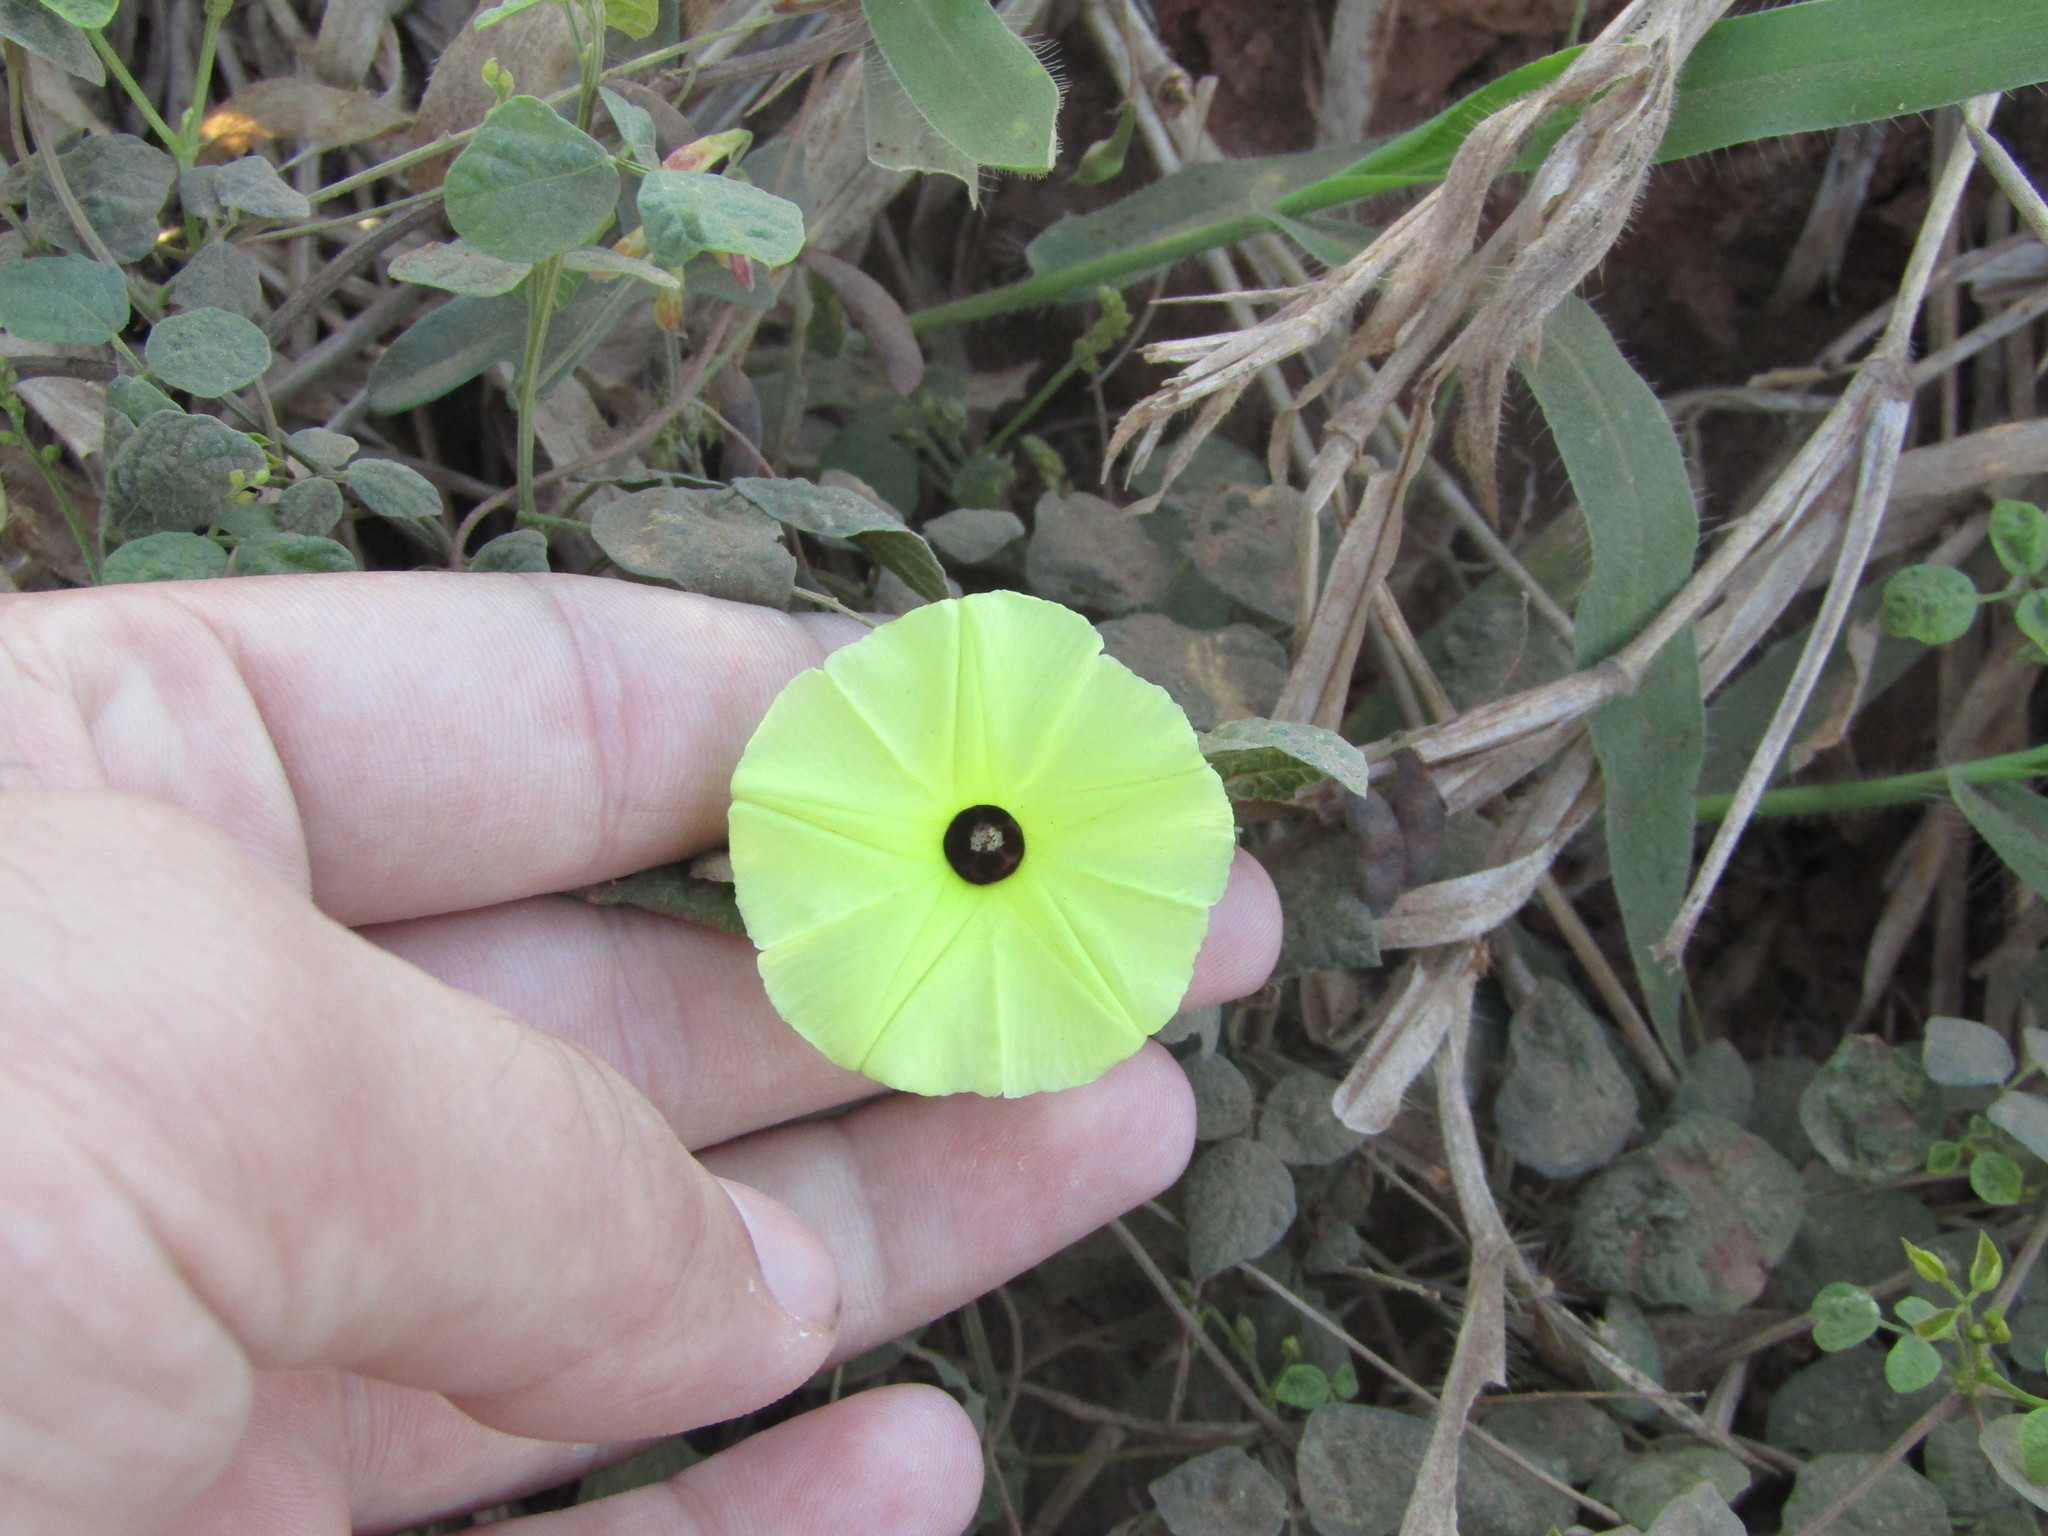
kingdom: Plantae
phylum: Tracheophyta
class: Magnoliopsida
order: Solanales
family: Convolvulaceae
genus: Ipomoea
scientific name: Ipomoea longeramosa
